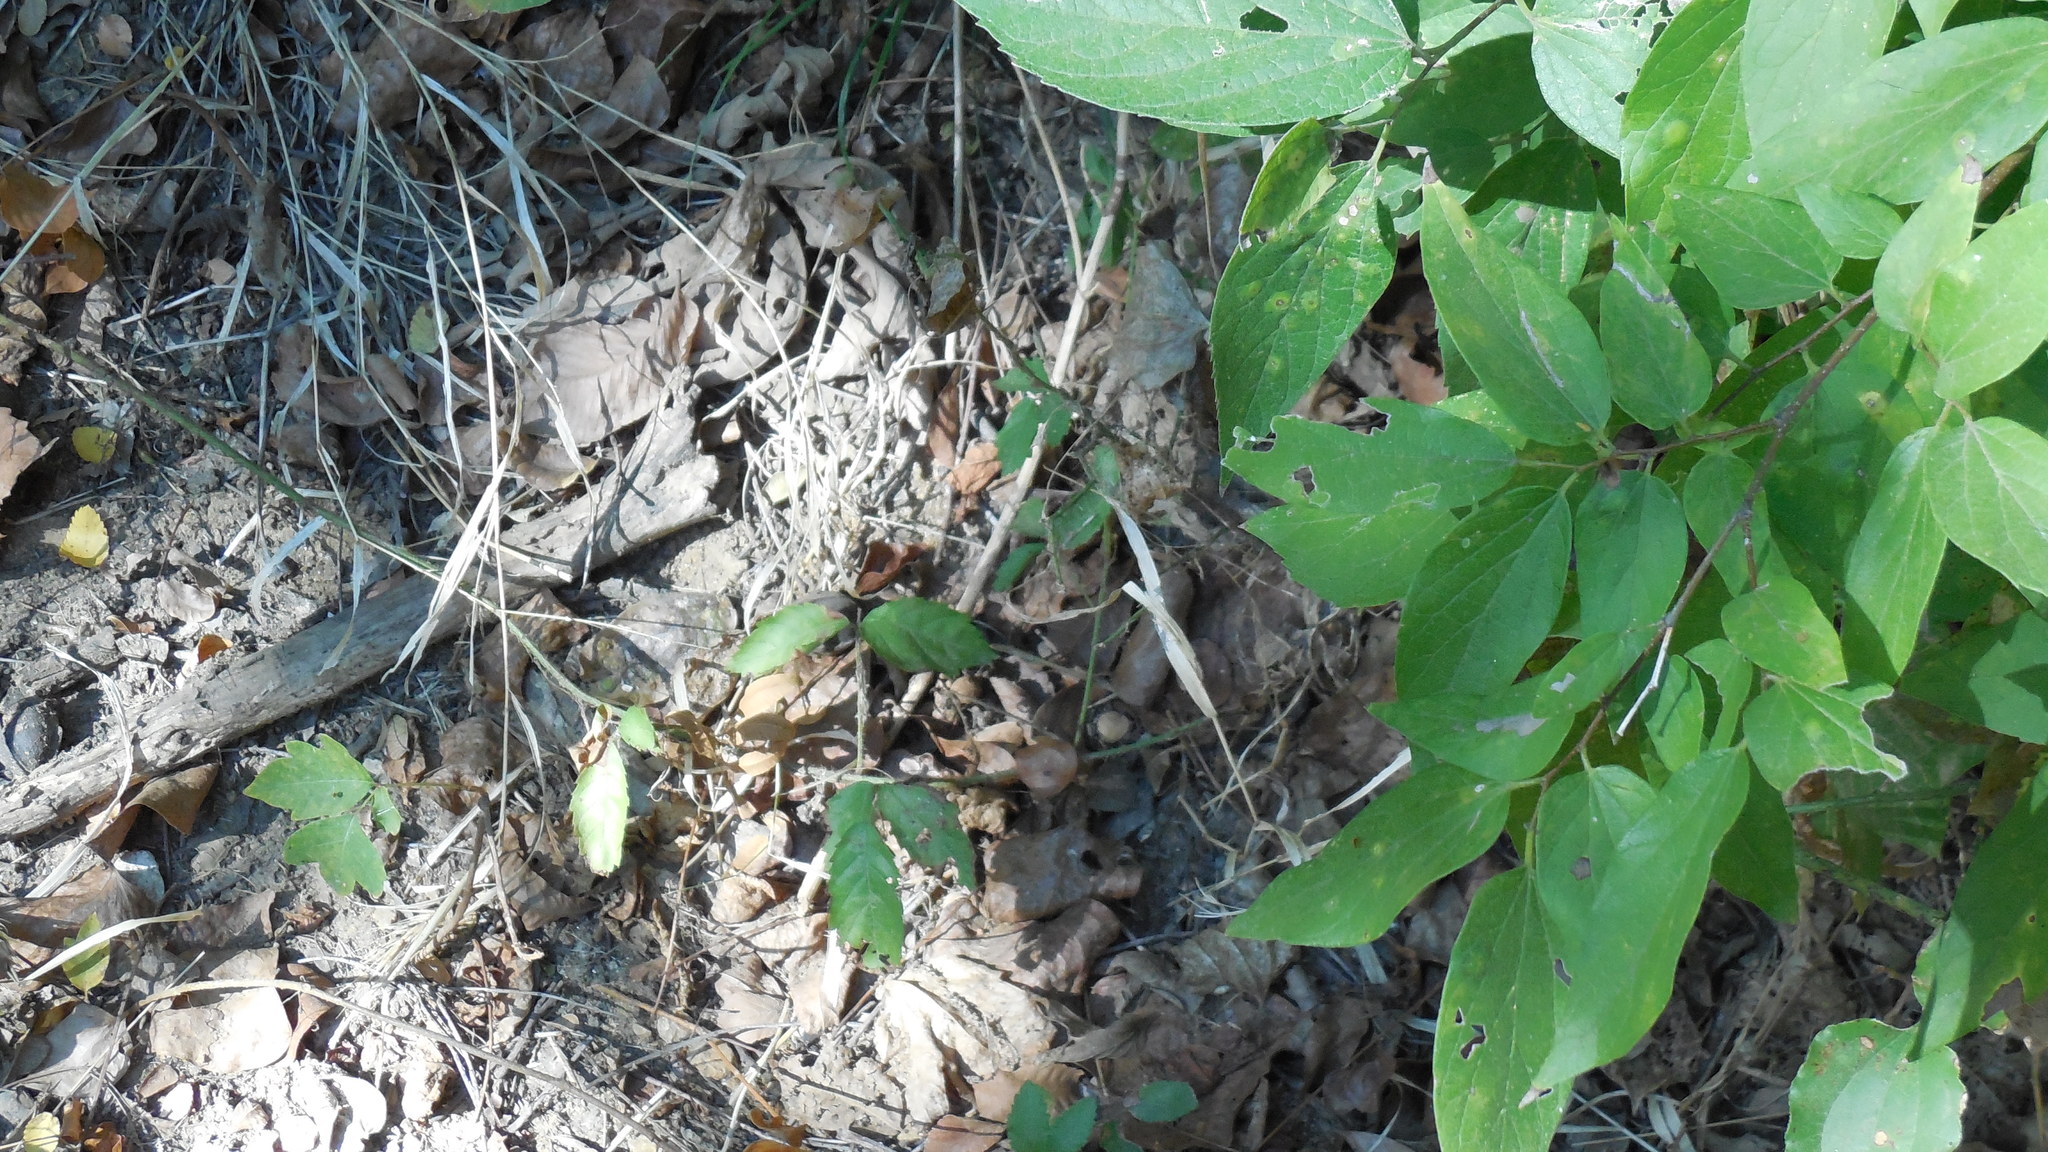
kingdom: Plantae
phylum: Tracheophyta
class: Magnoliopsida
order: Rosales
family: Cannabaceae
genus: Celtis
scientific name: Celtis laevigata
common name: Sugarberry
